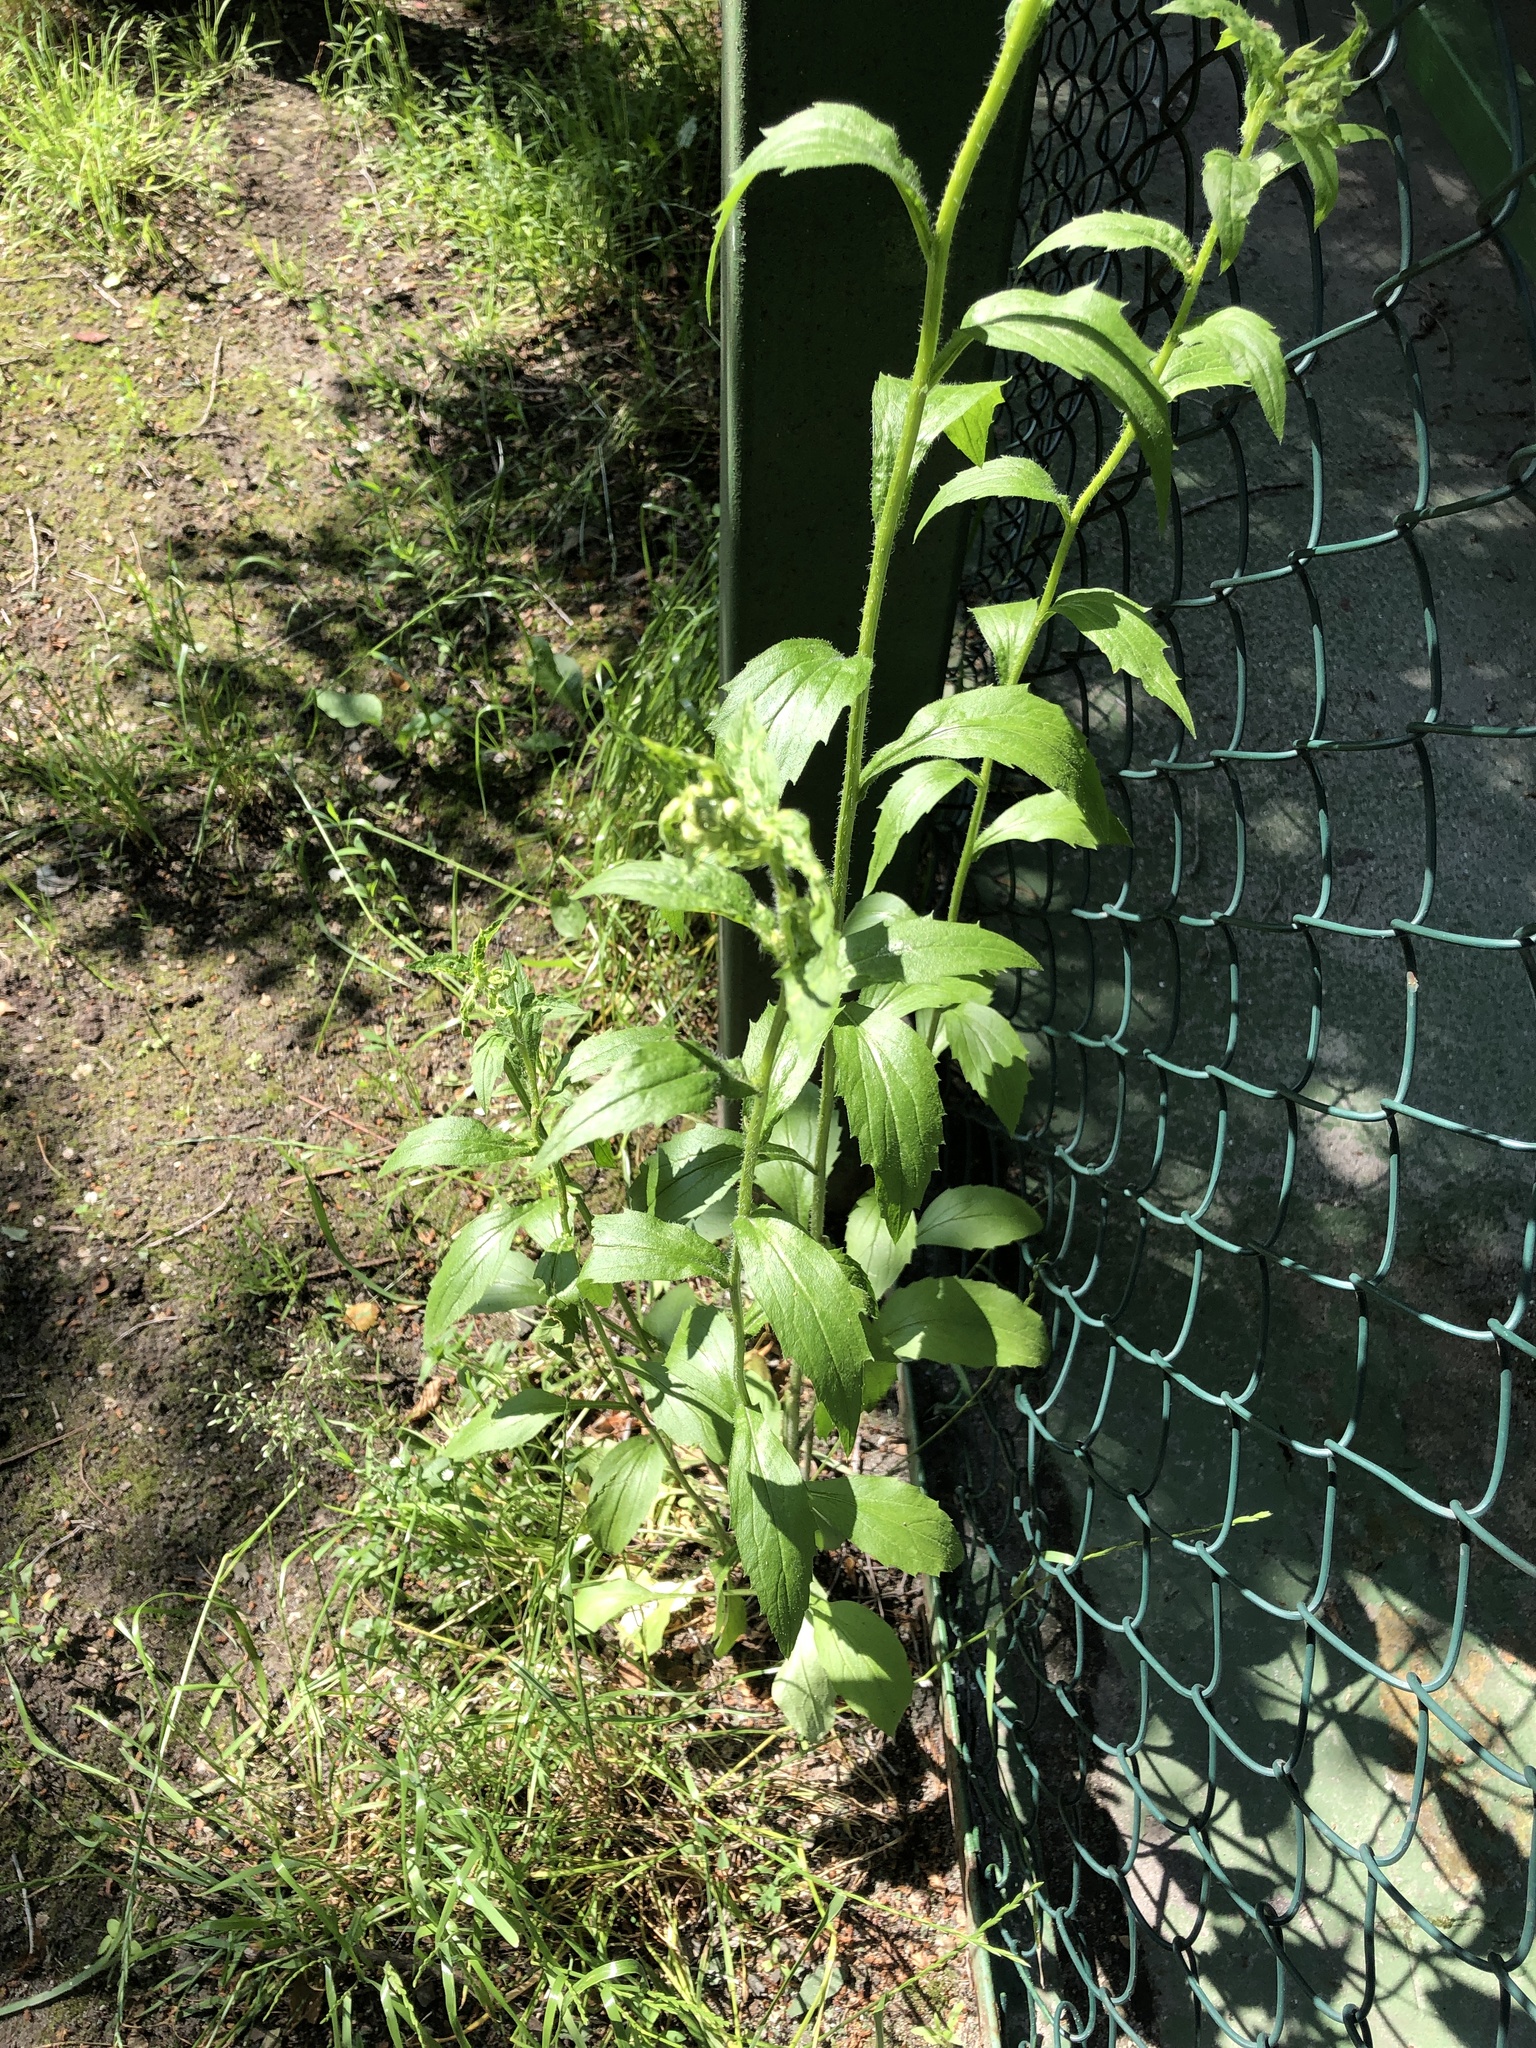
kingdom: Plantae
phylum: Tracheophyta
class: Magnoliopsida
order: Asterales
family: Asteraceae
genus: Erigeron
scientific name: Erigeron annuus
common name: Tall fleabane
